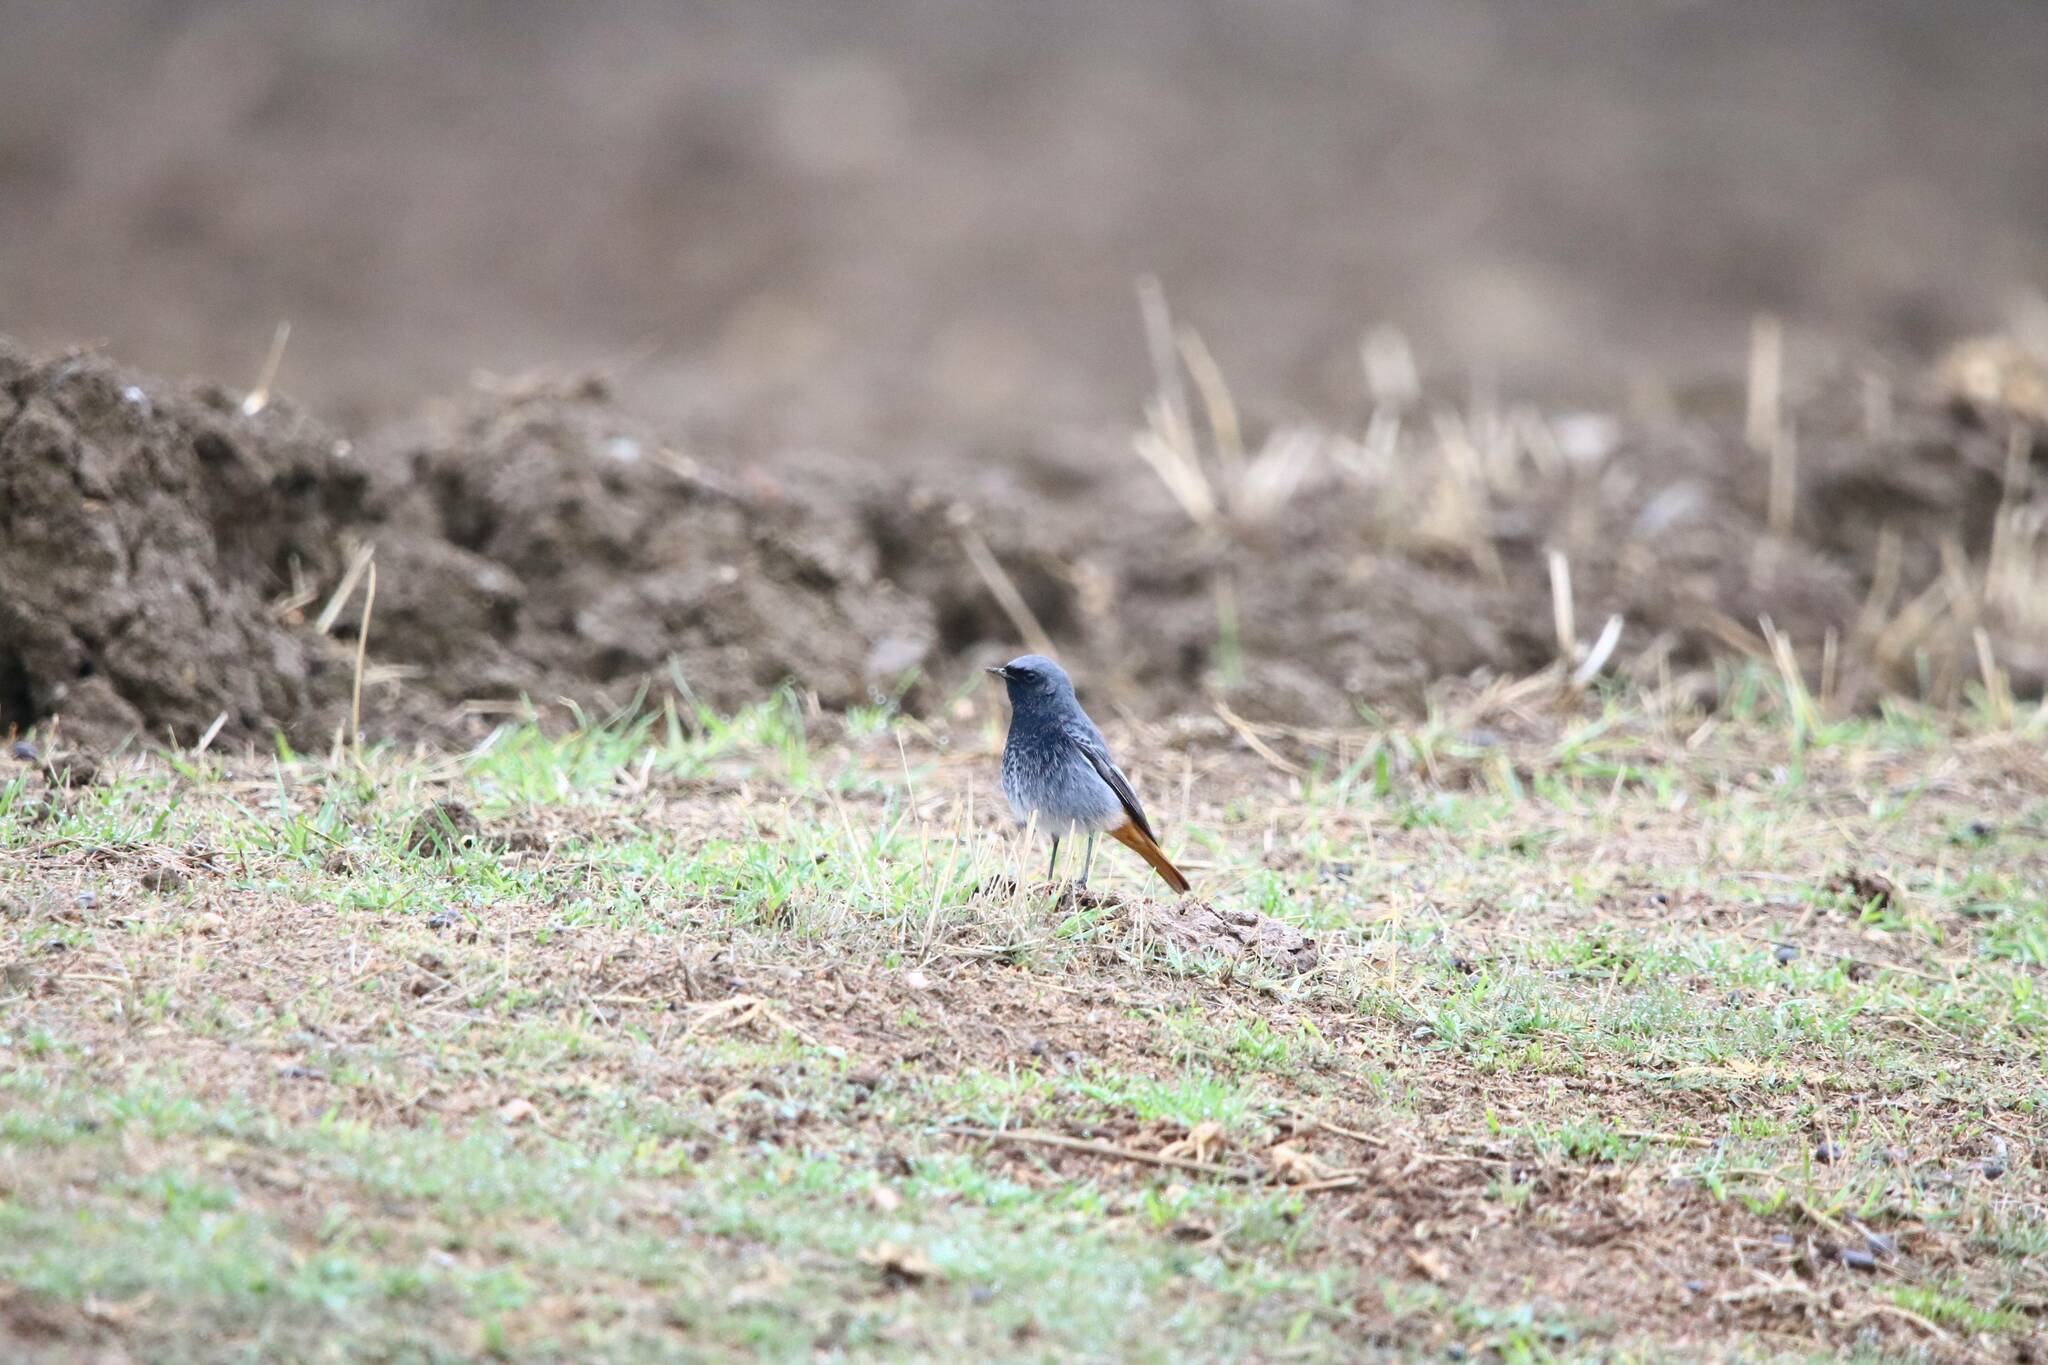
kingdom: Animalia
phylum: Chordata
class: Aves
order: Passeriformes
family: Muscicapidae
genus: Phoenicurus
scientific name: Phoenicurus ochruros
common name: Black redstart
